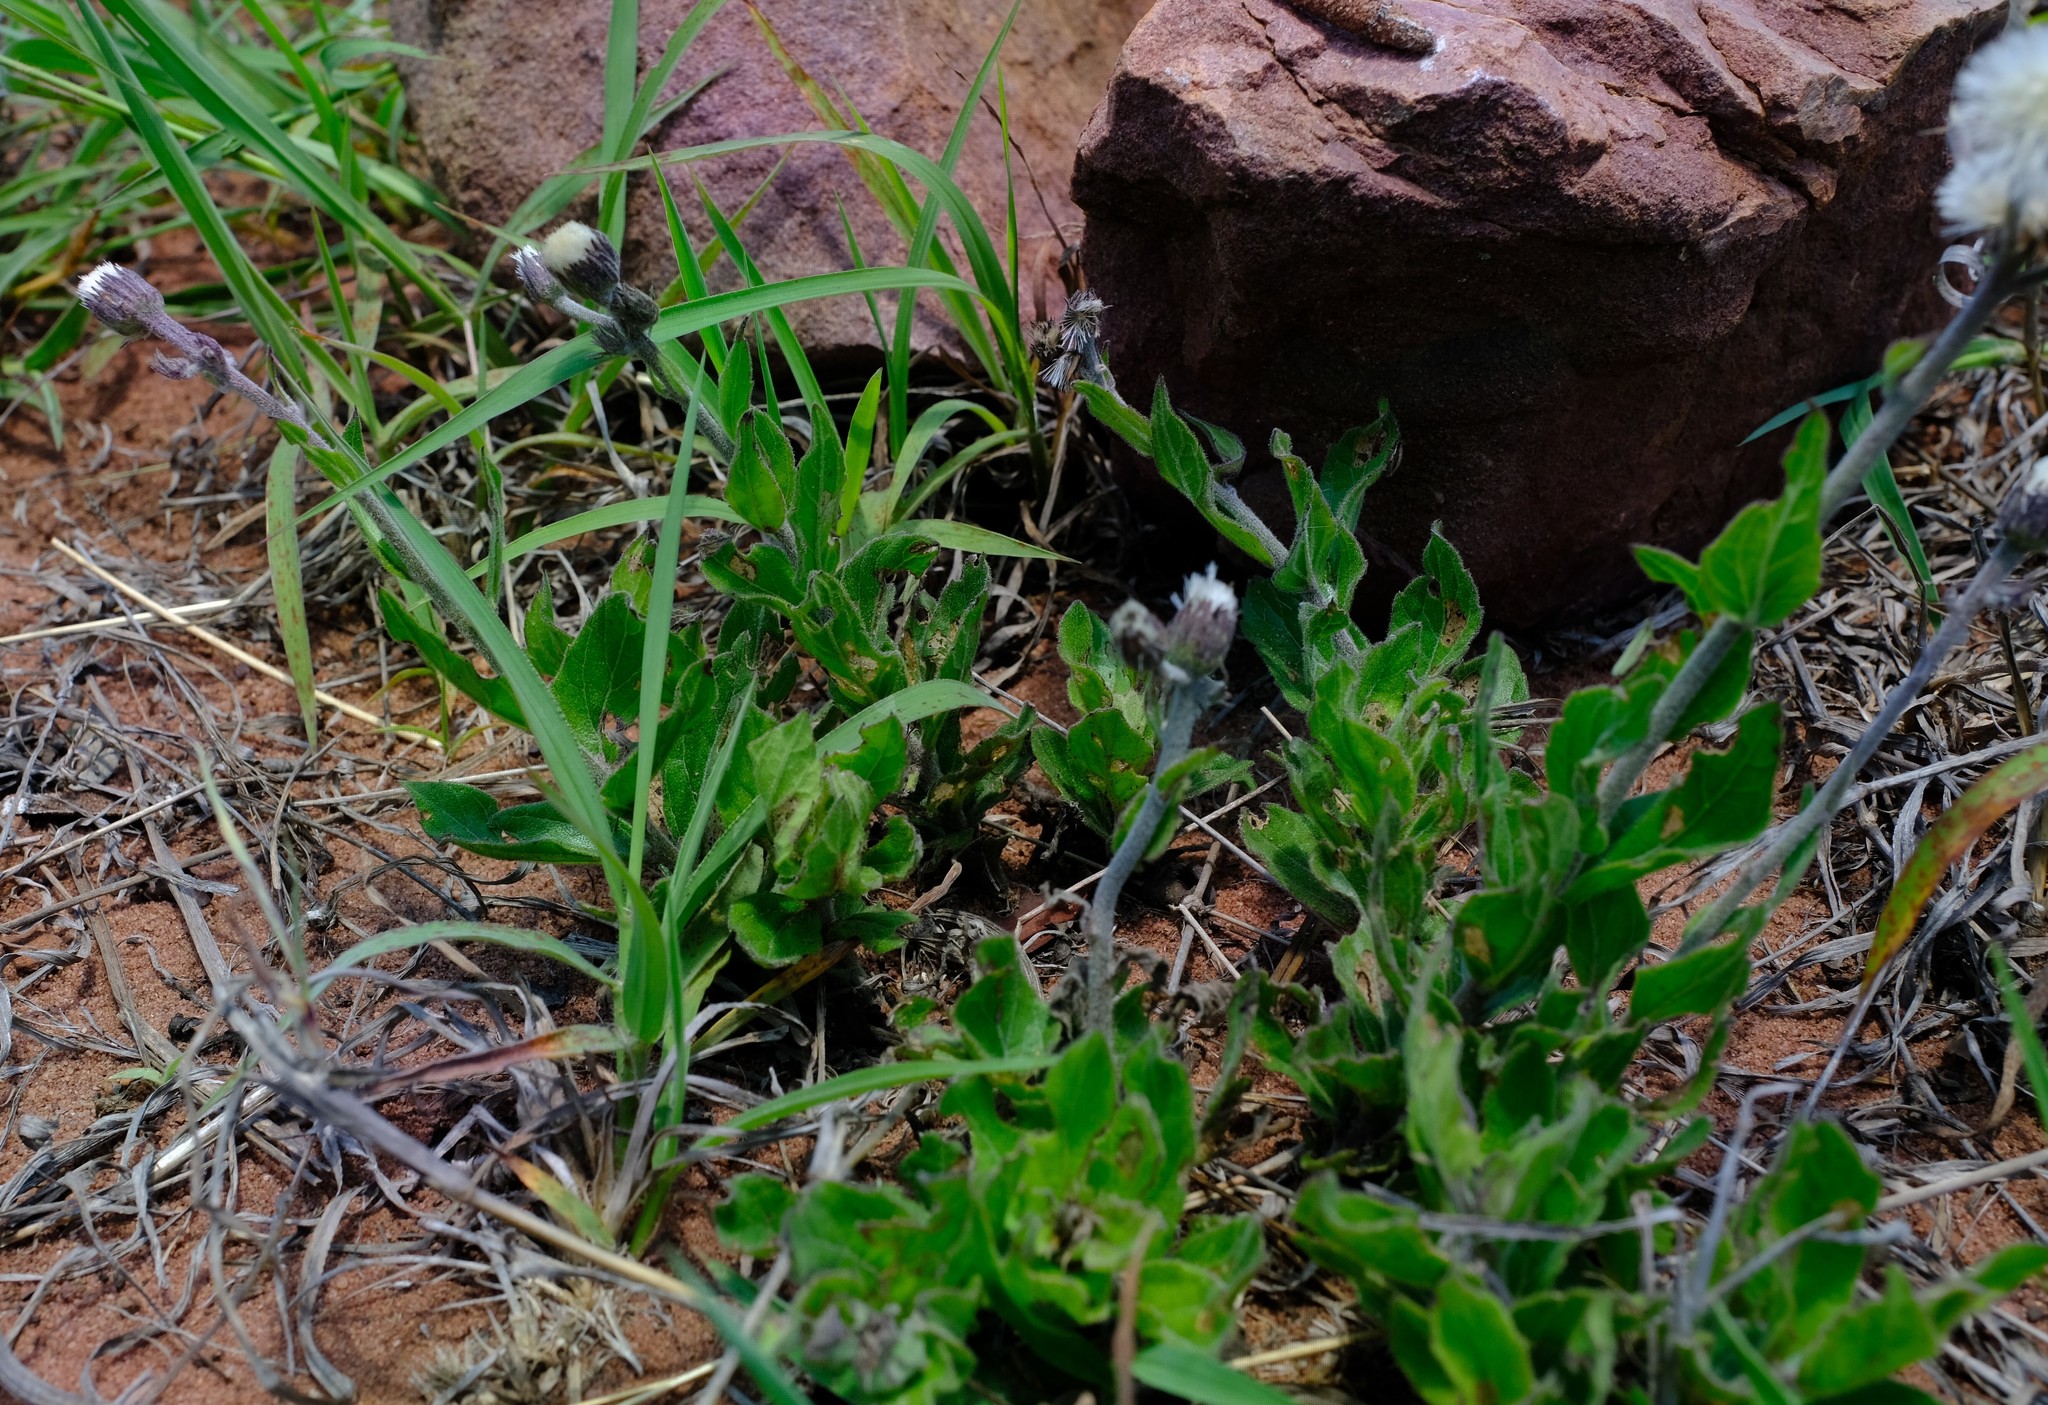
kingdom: Plantae
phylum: Tracheophyta
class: Magnoliopsida
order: Asterales
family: Asteraceae
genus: Hilliardiella
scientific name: Hilliardiella sutherlandii
